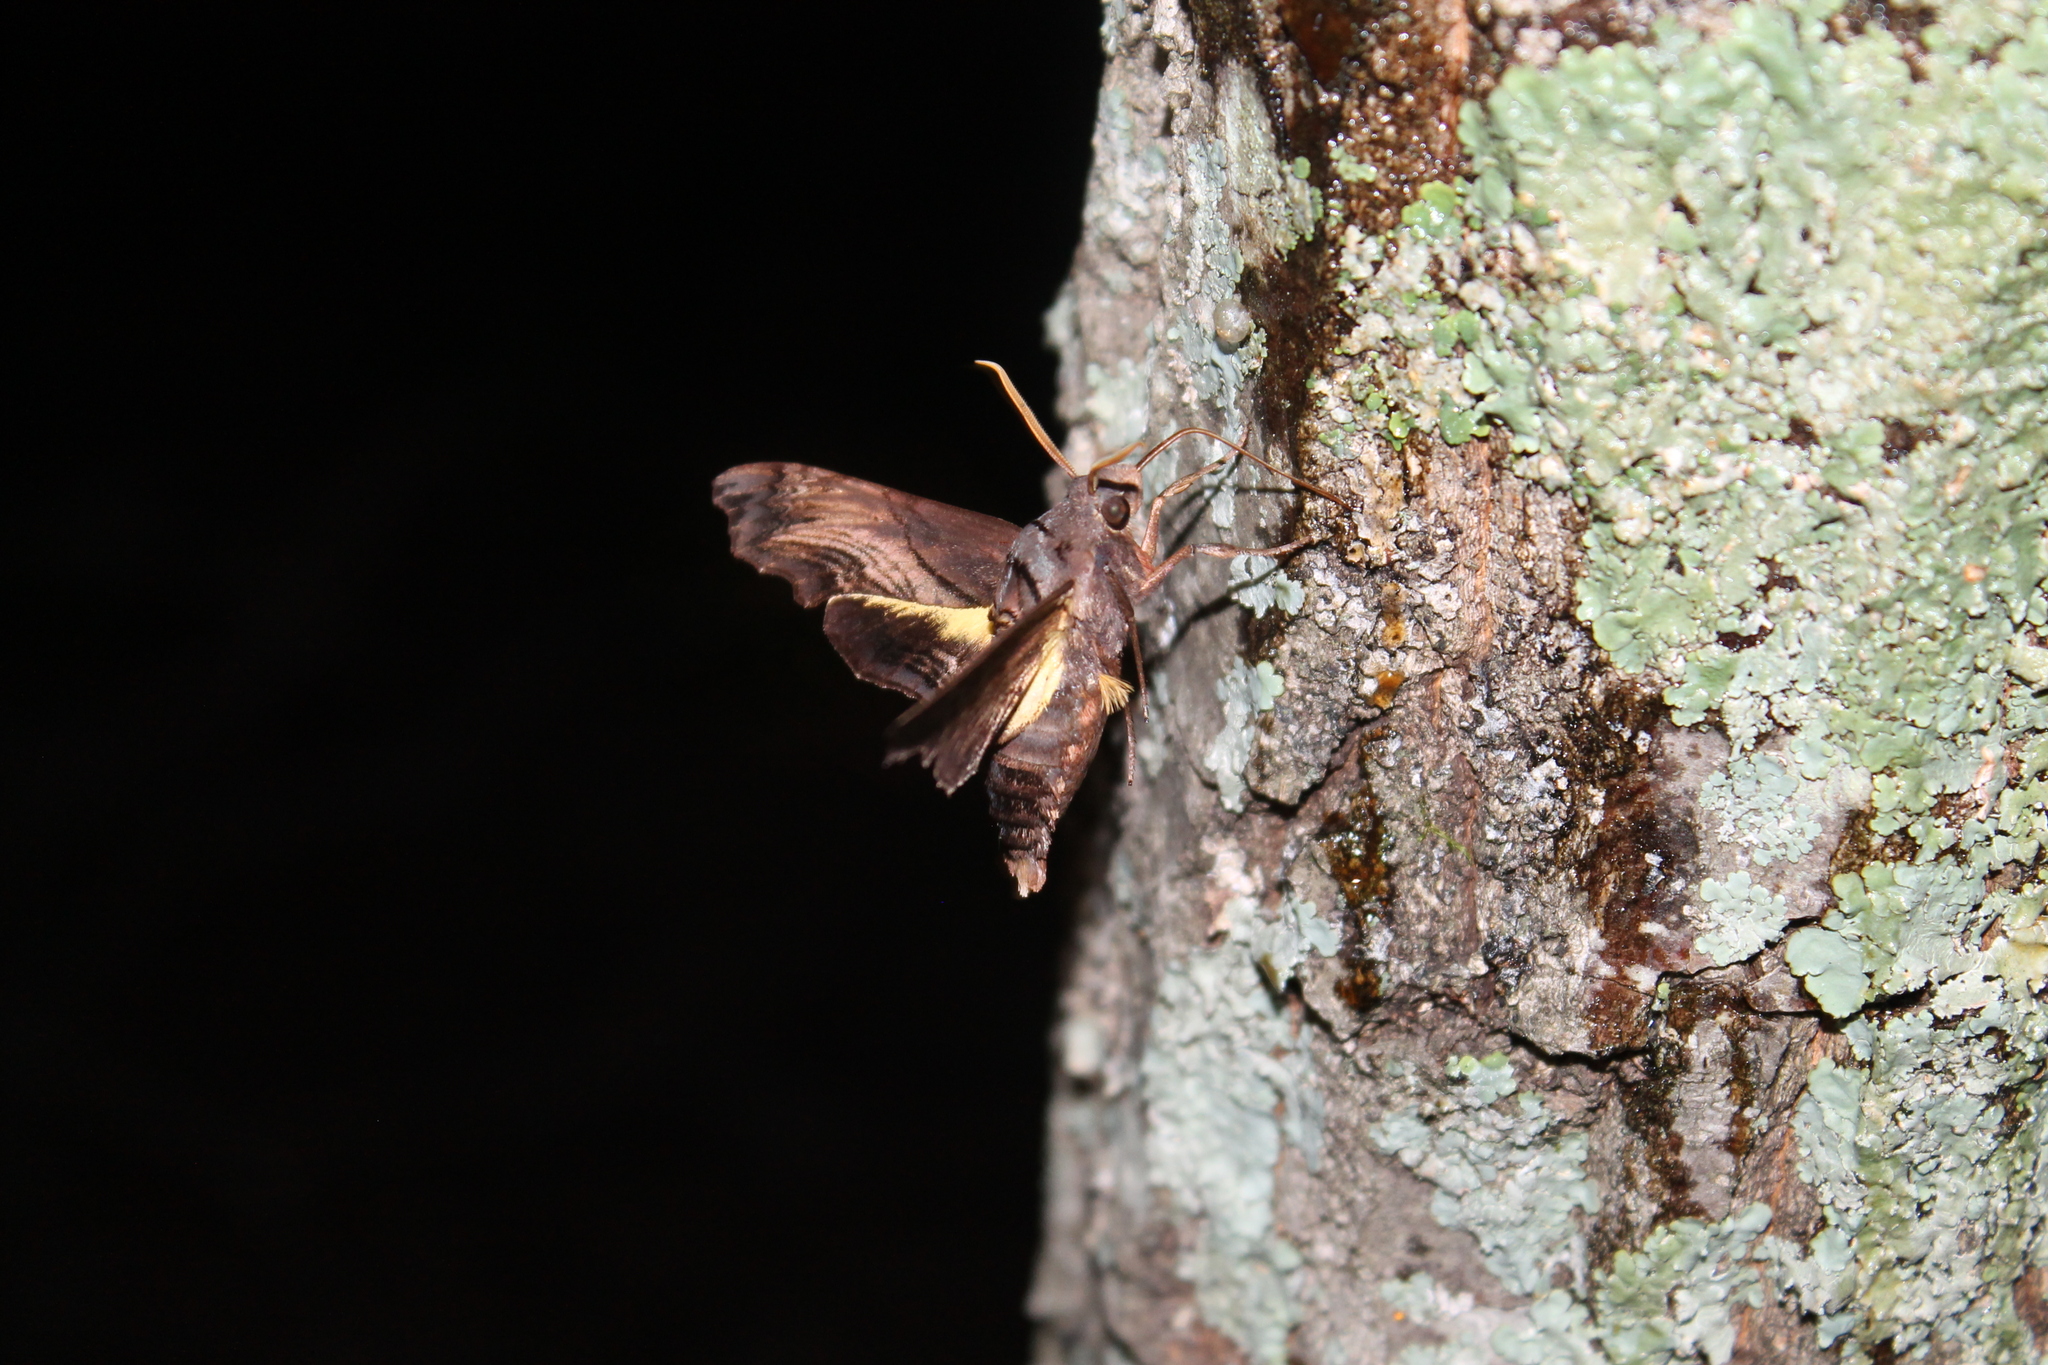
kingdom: Animalia
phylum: Arthropoda
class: Insecta
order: Lepidoptera
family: Sphingidae
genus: Sphecodina
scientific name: Sphecodina abbottii
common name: Abbott's sphinx
